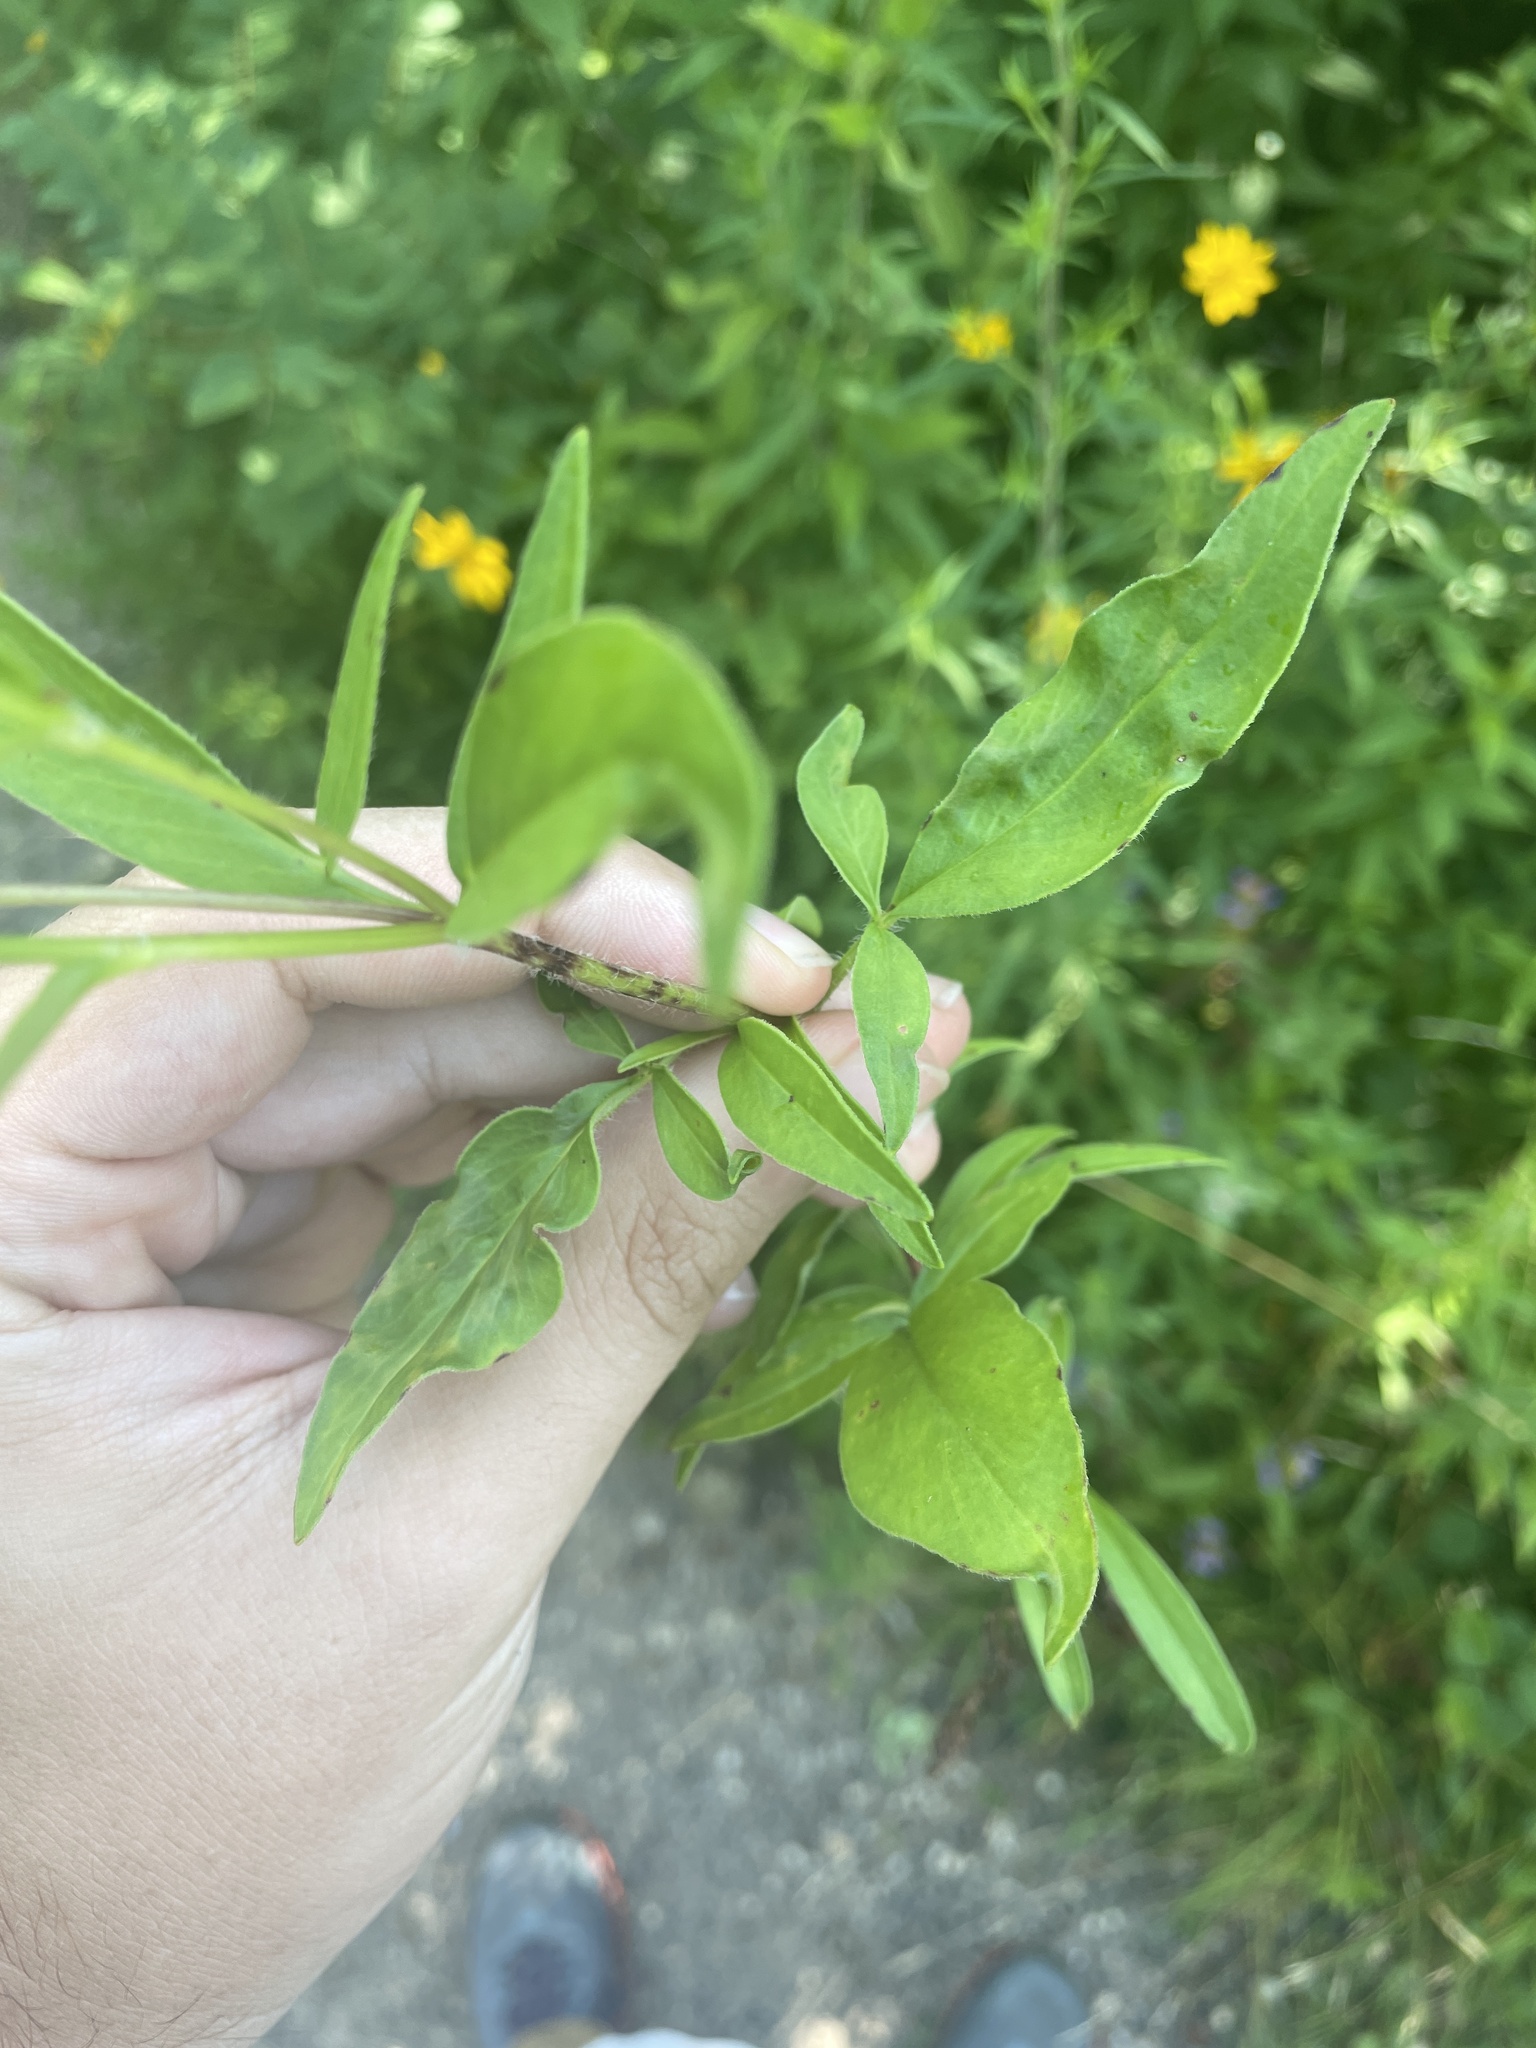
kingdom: Plantae
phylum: Tracheophyta
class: Magnoliopsida
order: Asterales
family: Asteraceae
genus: Coreopsis
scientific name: Coreopsis pubescens
